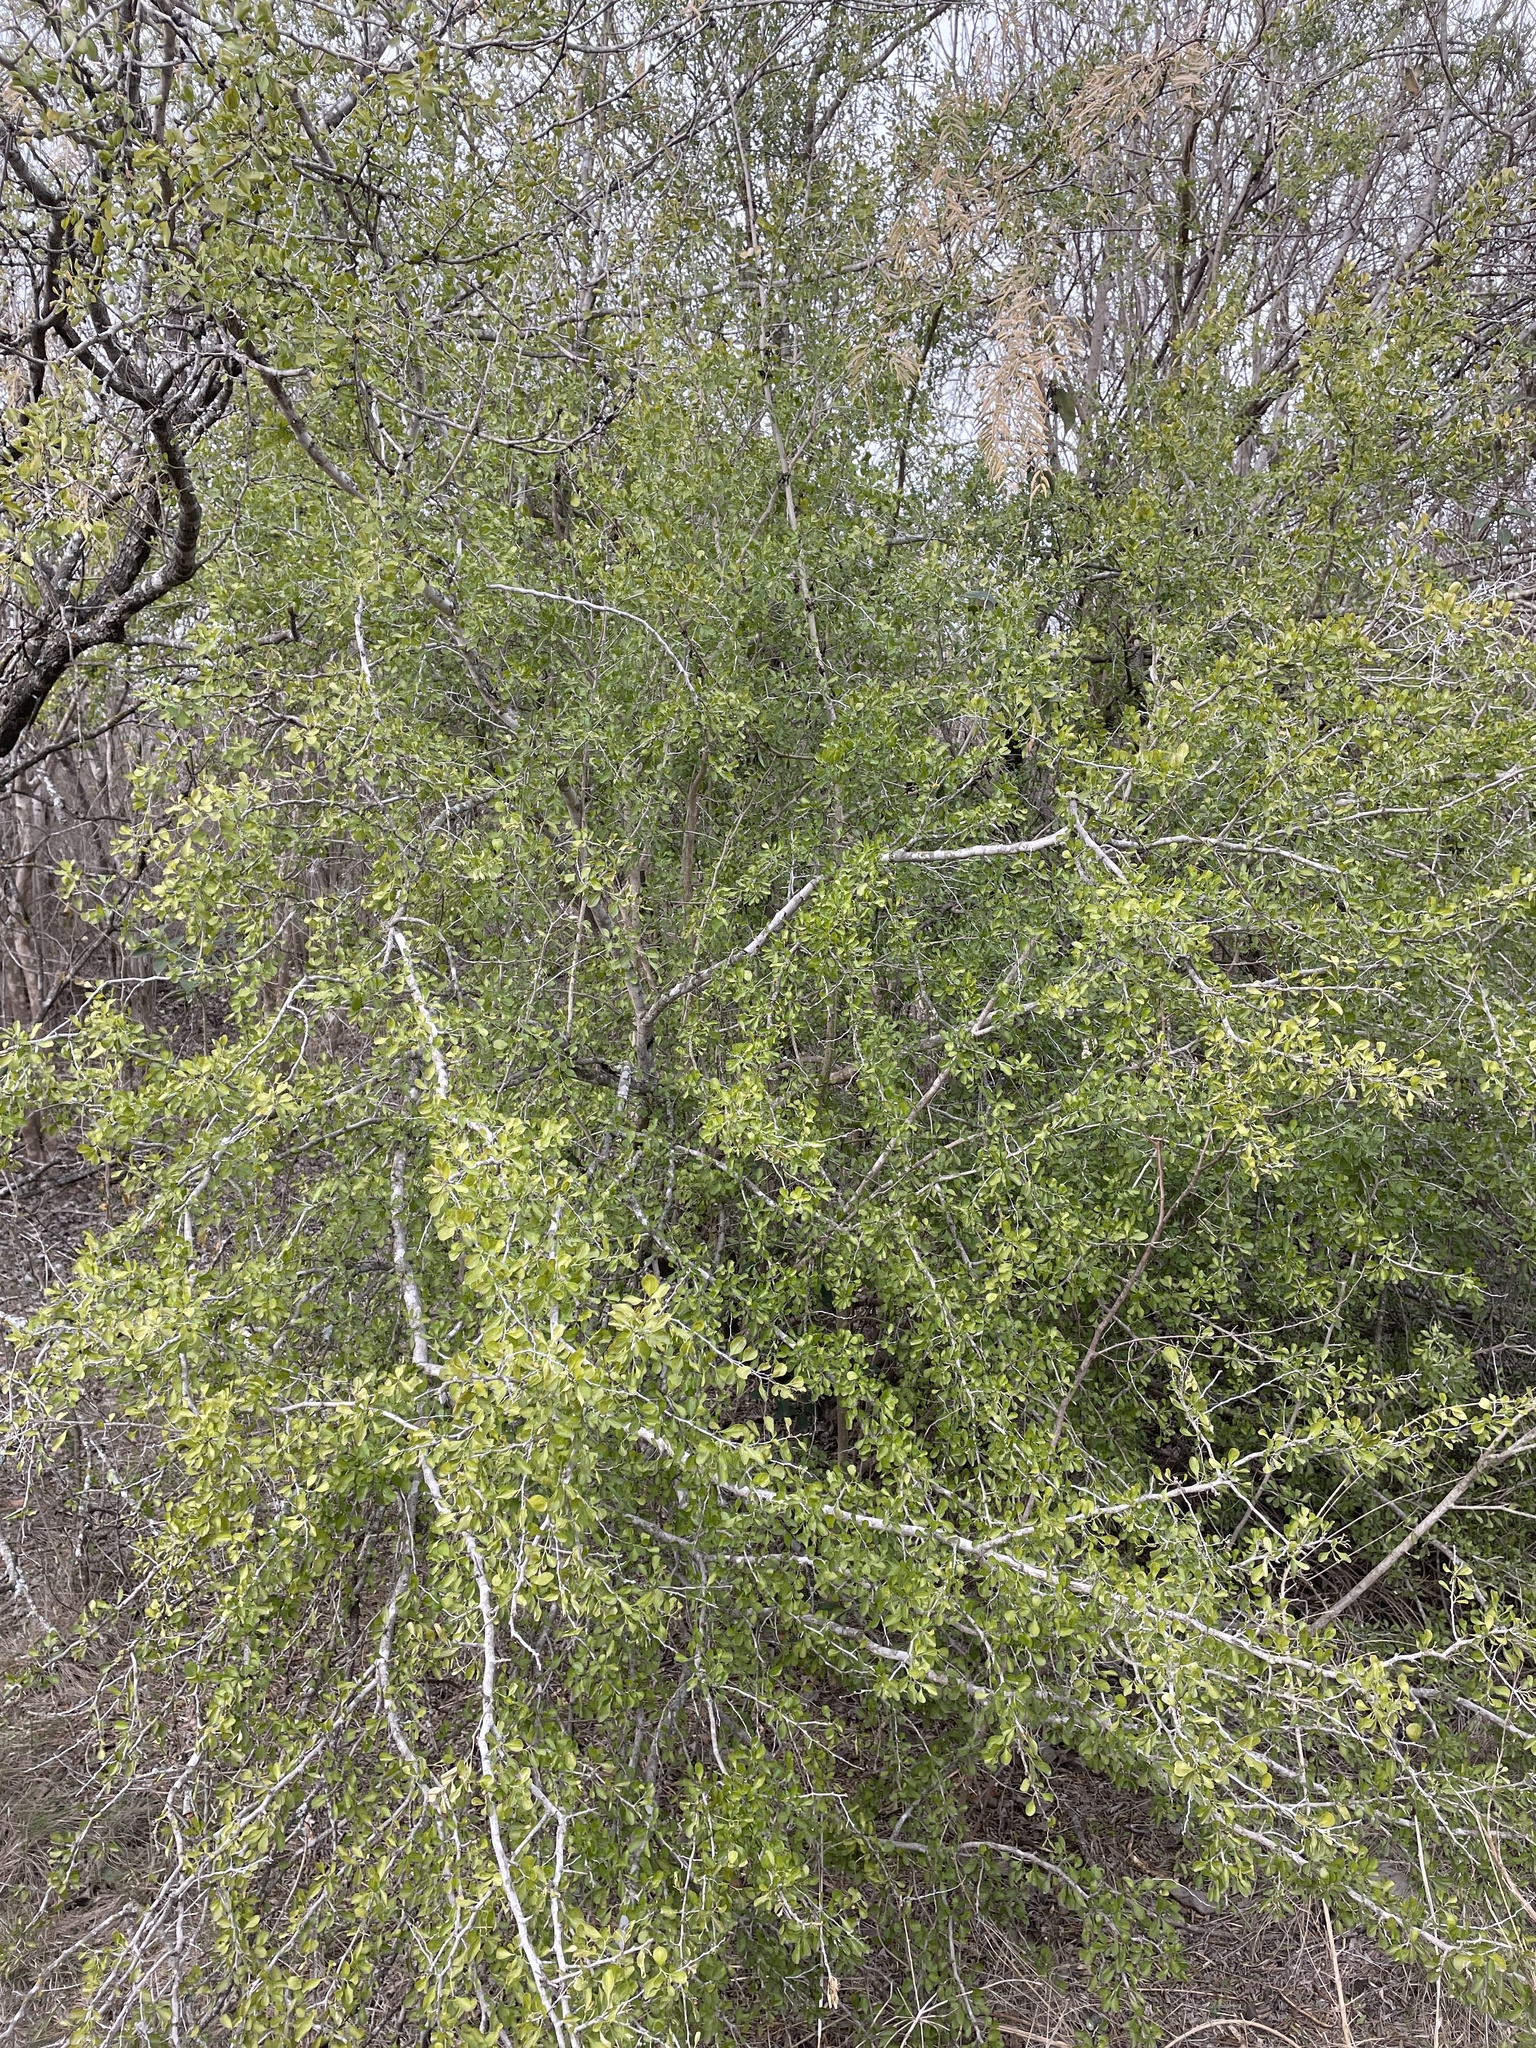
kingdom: Plantae
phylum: Tracheophyta
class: Magnoliopsida
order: Rosales
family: Rhamnaceae
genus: Condalia
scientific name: Condalia hookeri
